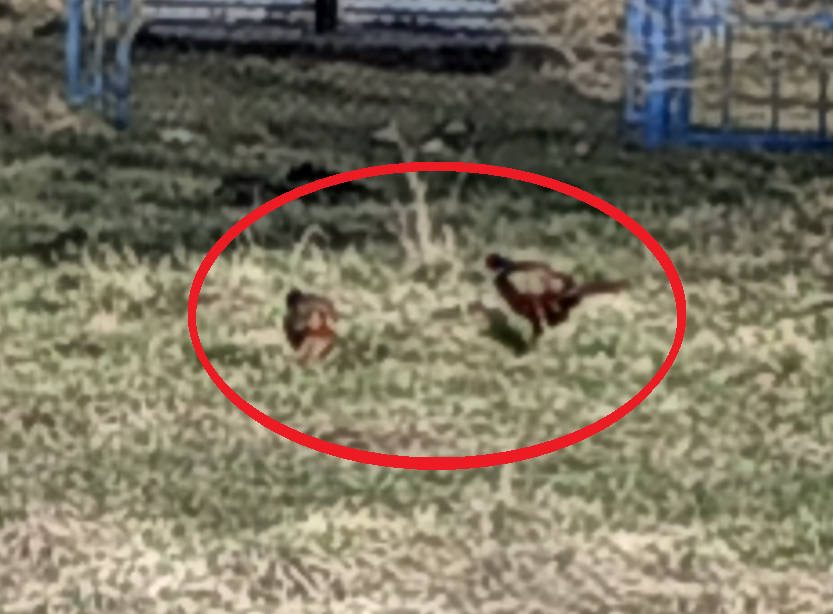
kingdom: Animalia
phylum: Chordata
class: Aves
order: Galliformes
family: Phasianidae
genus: Phasianus
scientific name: Phasianus colchicus
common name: Common pheasant
